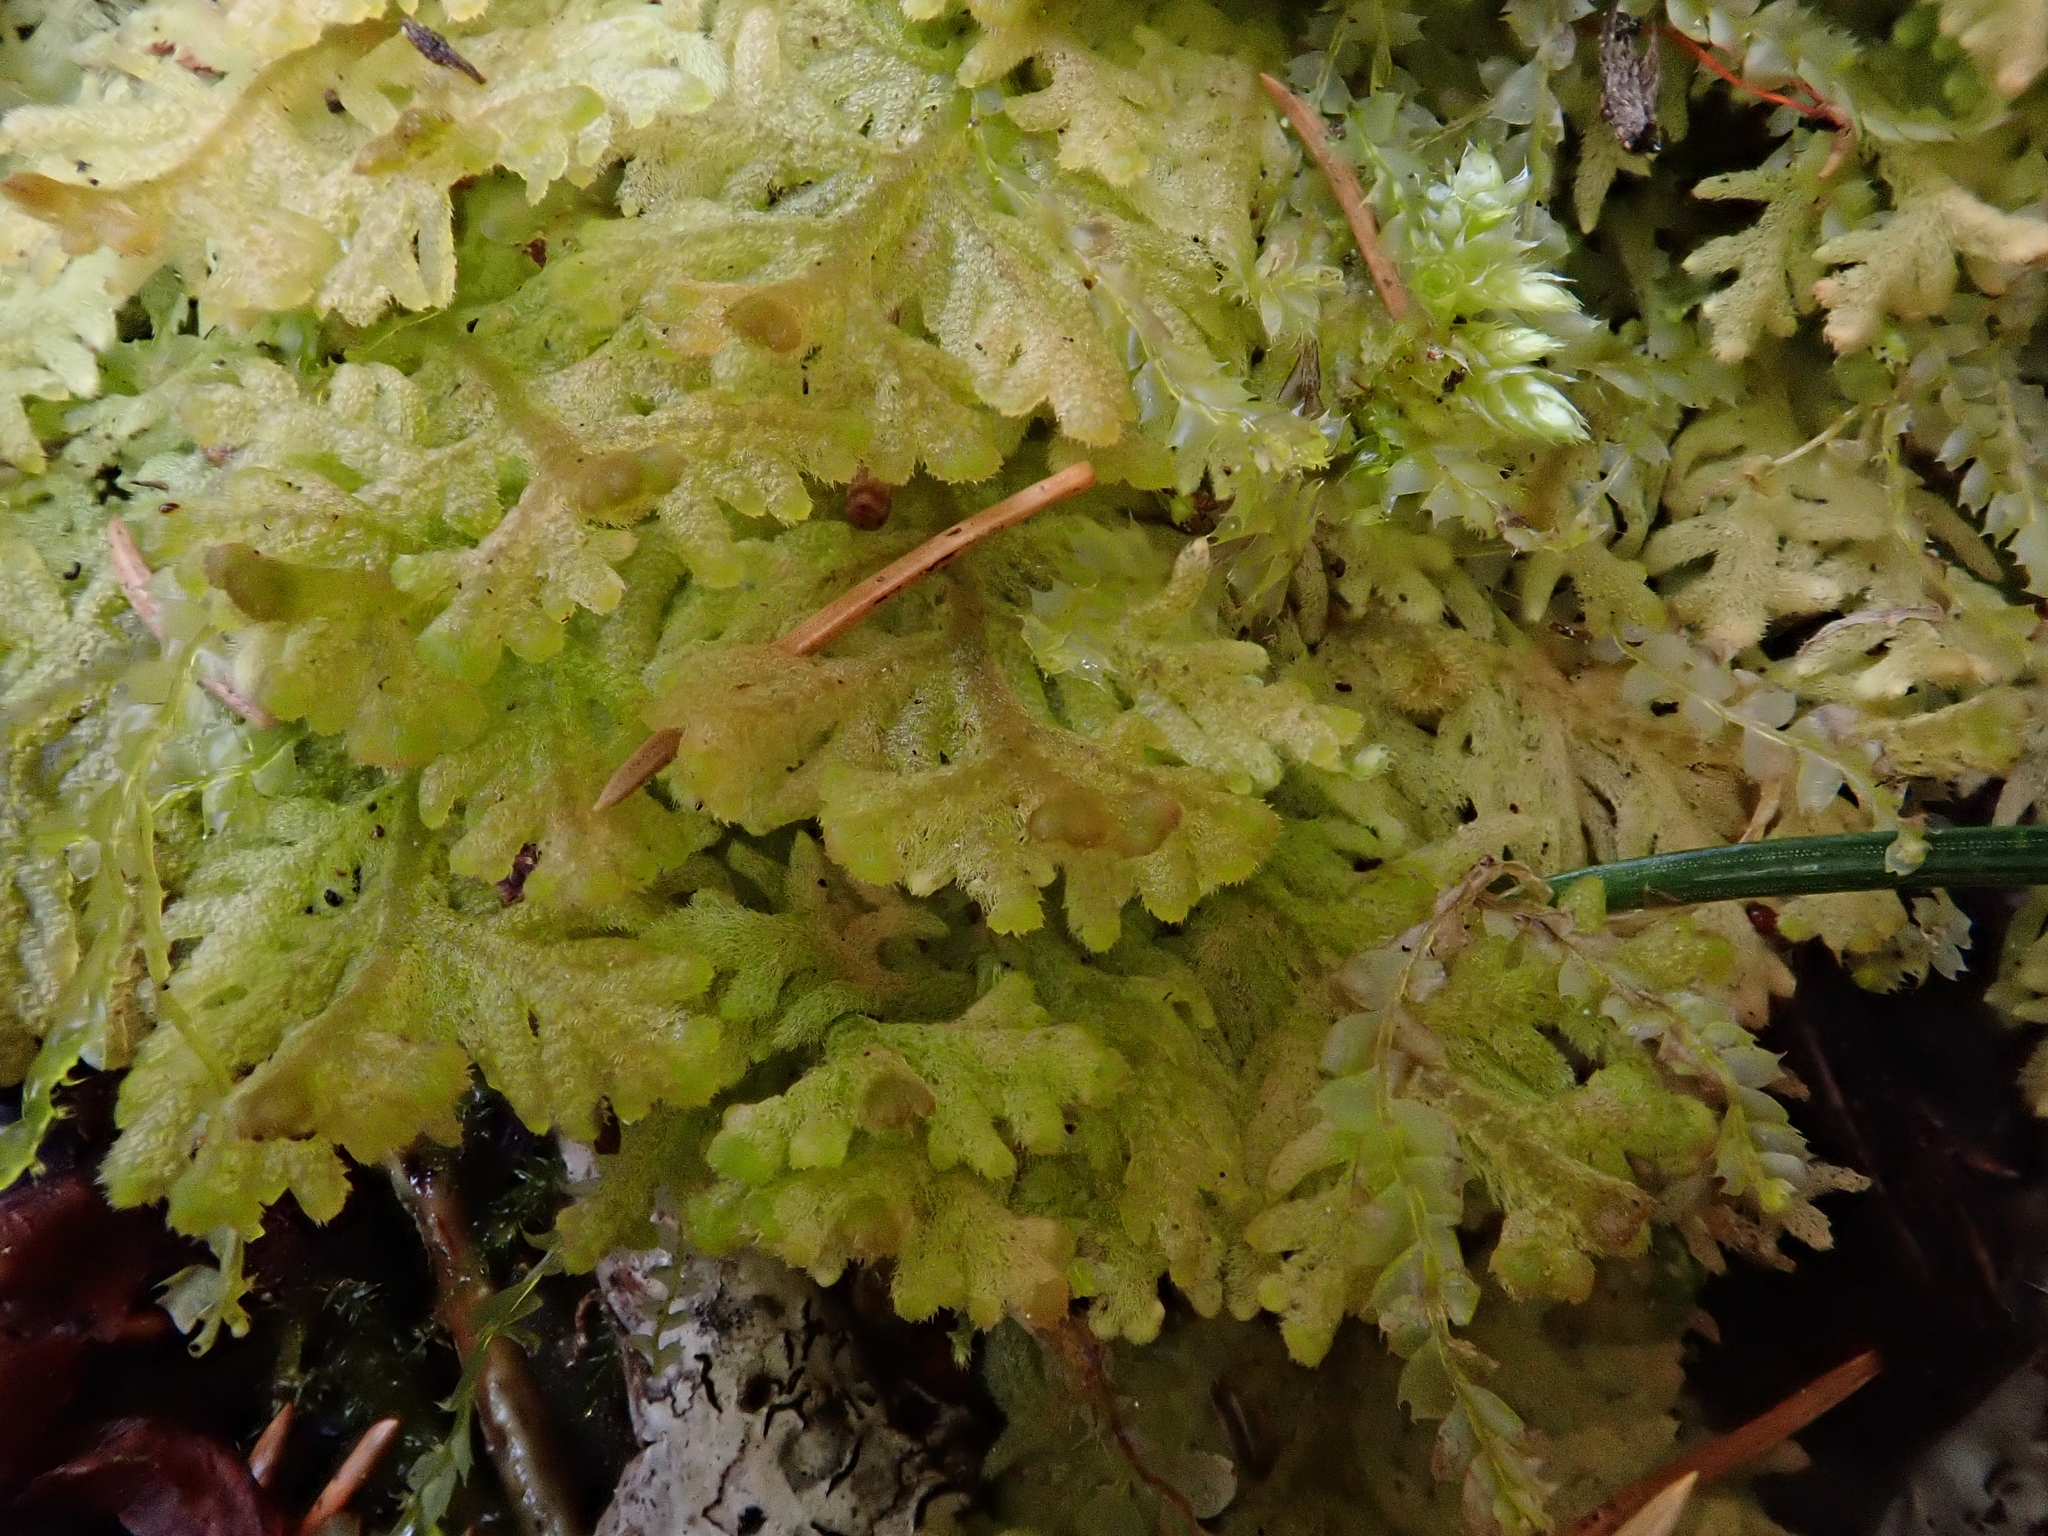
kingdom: Plantae
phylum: Marchantiophyta
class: Jungermanniopsida
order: Jungermanniales
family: Trichocoleaceae
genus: Trichocolea
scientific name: Trichocolea tomentella
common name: Woolly liverwort
